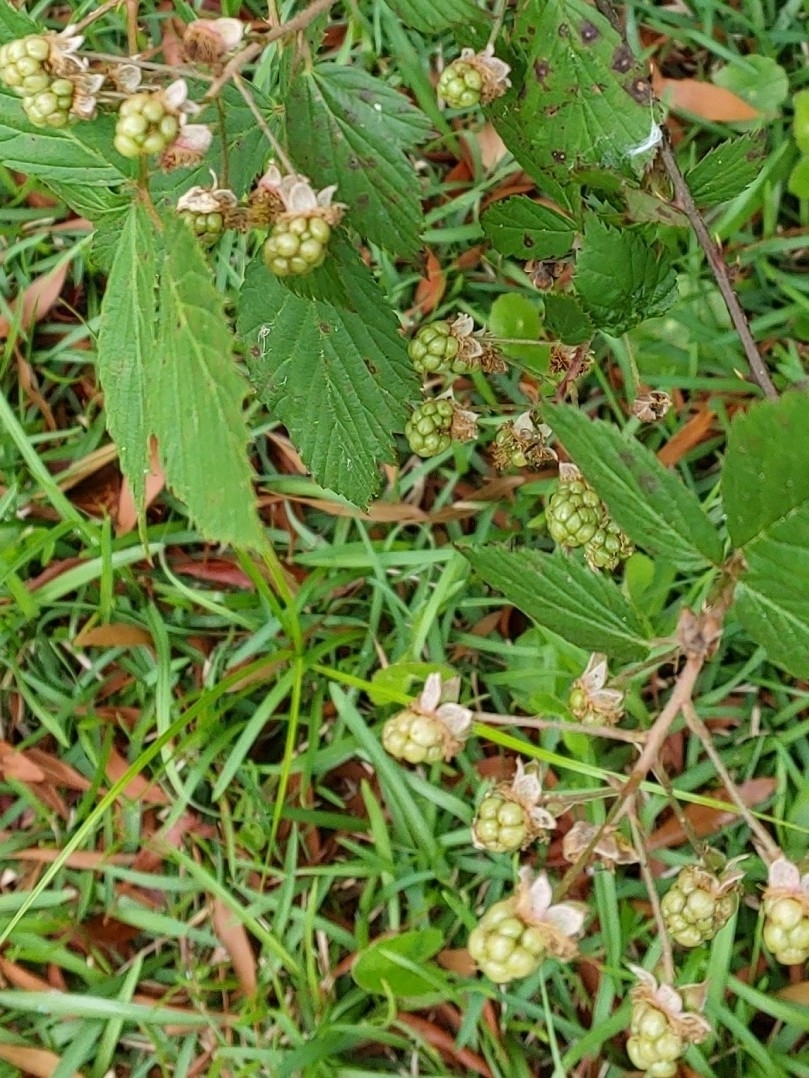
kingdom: Plantae
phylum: Tracheophyta
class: Magnoliopsida
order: Rosales
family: Rosaceae
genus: Rubus
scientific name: Rubus trivialis
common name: Southern dewberry
